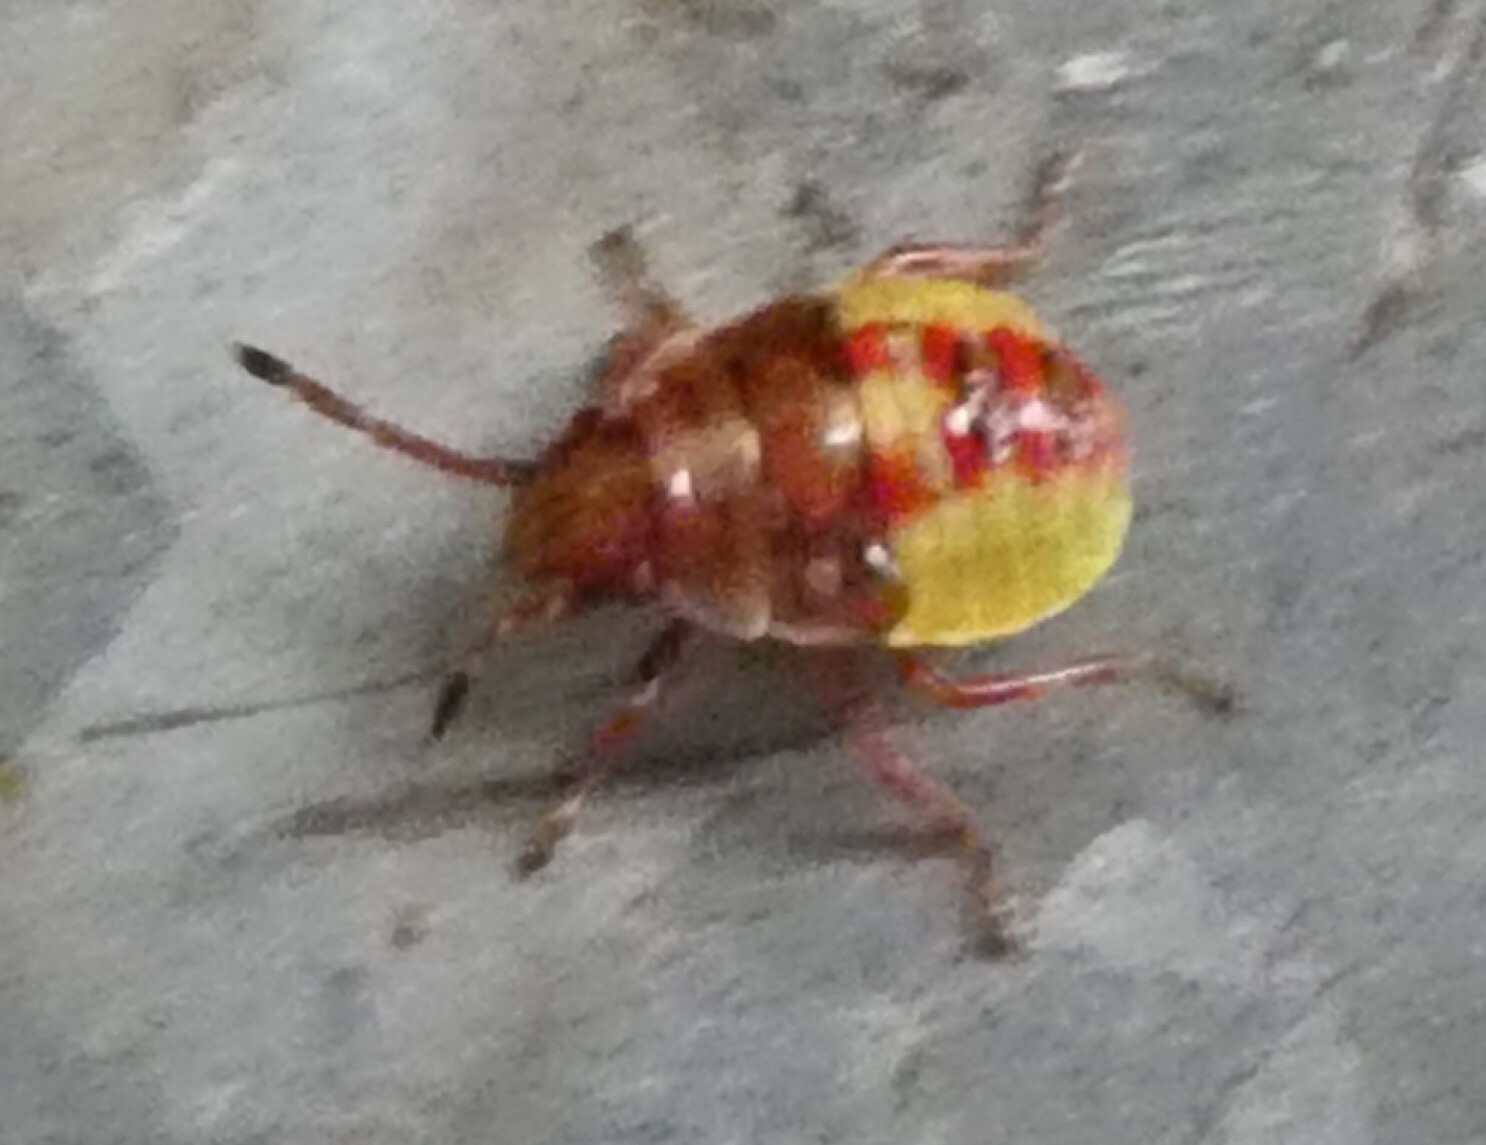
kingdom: Animalia
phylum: Arthropoda
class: Insecta
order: Hemiptera
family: Acanthosomatidae
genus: Elasmostethus
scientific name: Elasmostethus interstinctus
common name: Birch shieldbug
